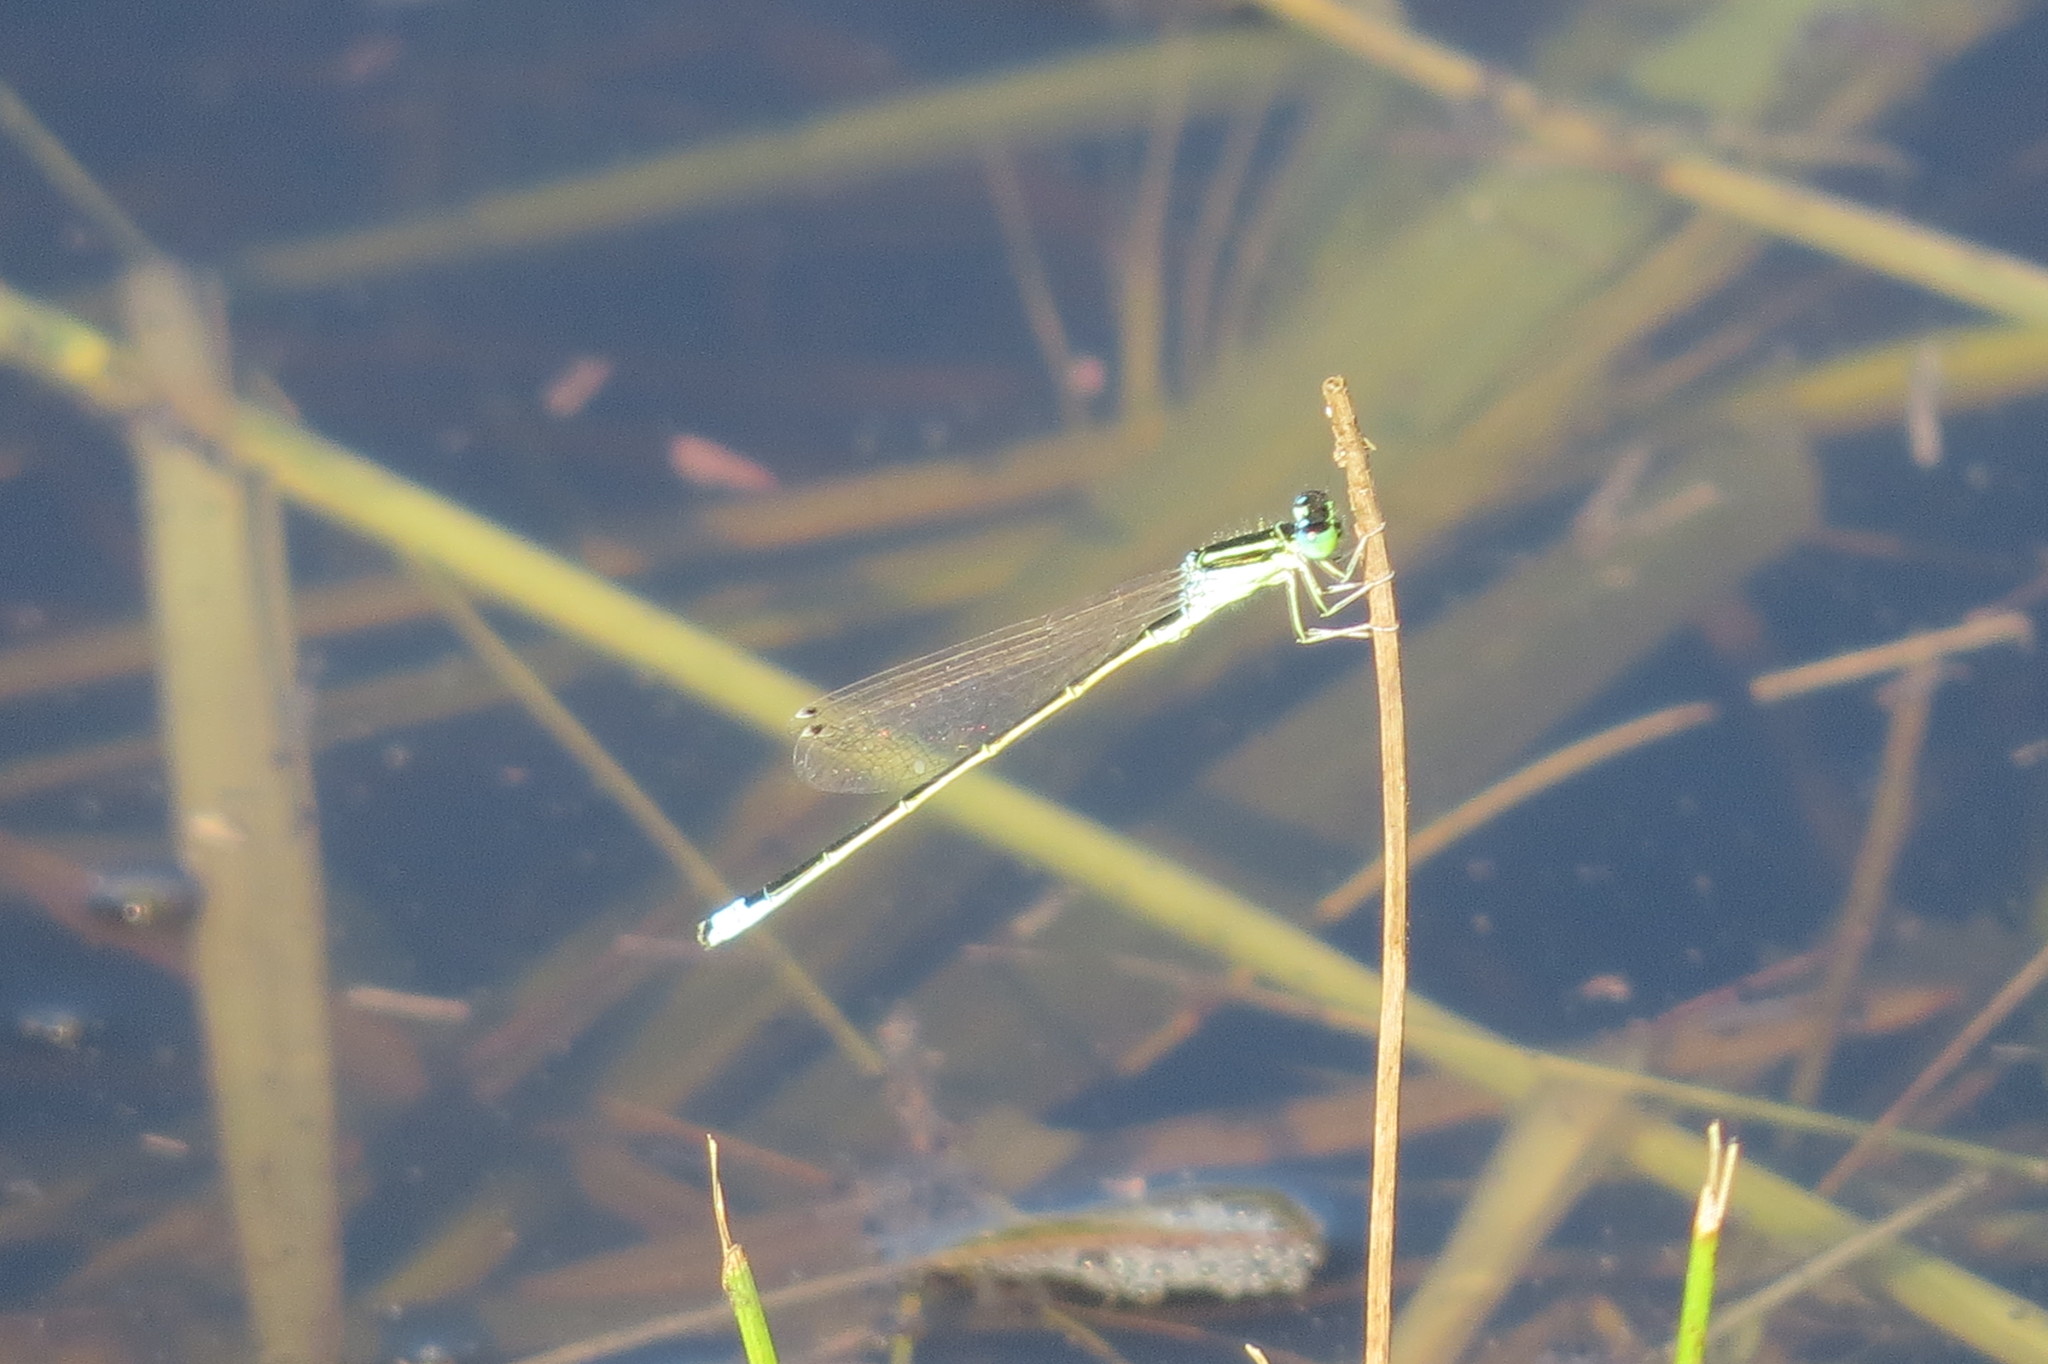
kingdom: Animalia
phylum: Arthropoda
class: Insecta
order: Odonata
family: Coenagrionidae
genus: Ischnura
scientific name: Ischnura pumilio
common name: Scarce blue-tailed damselfly
